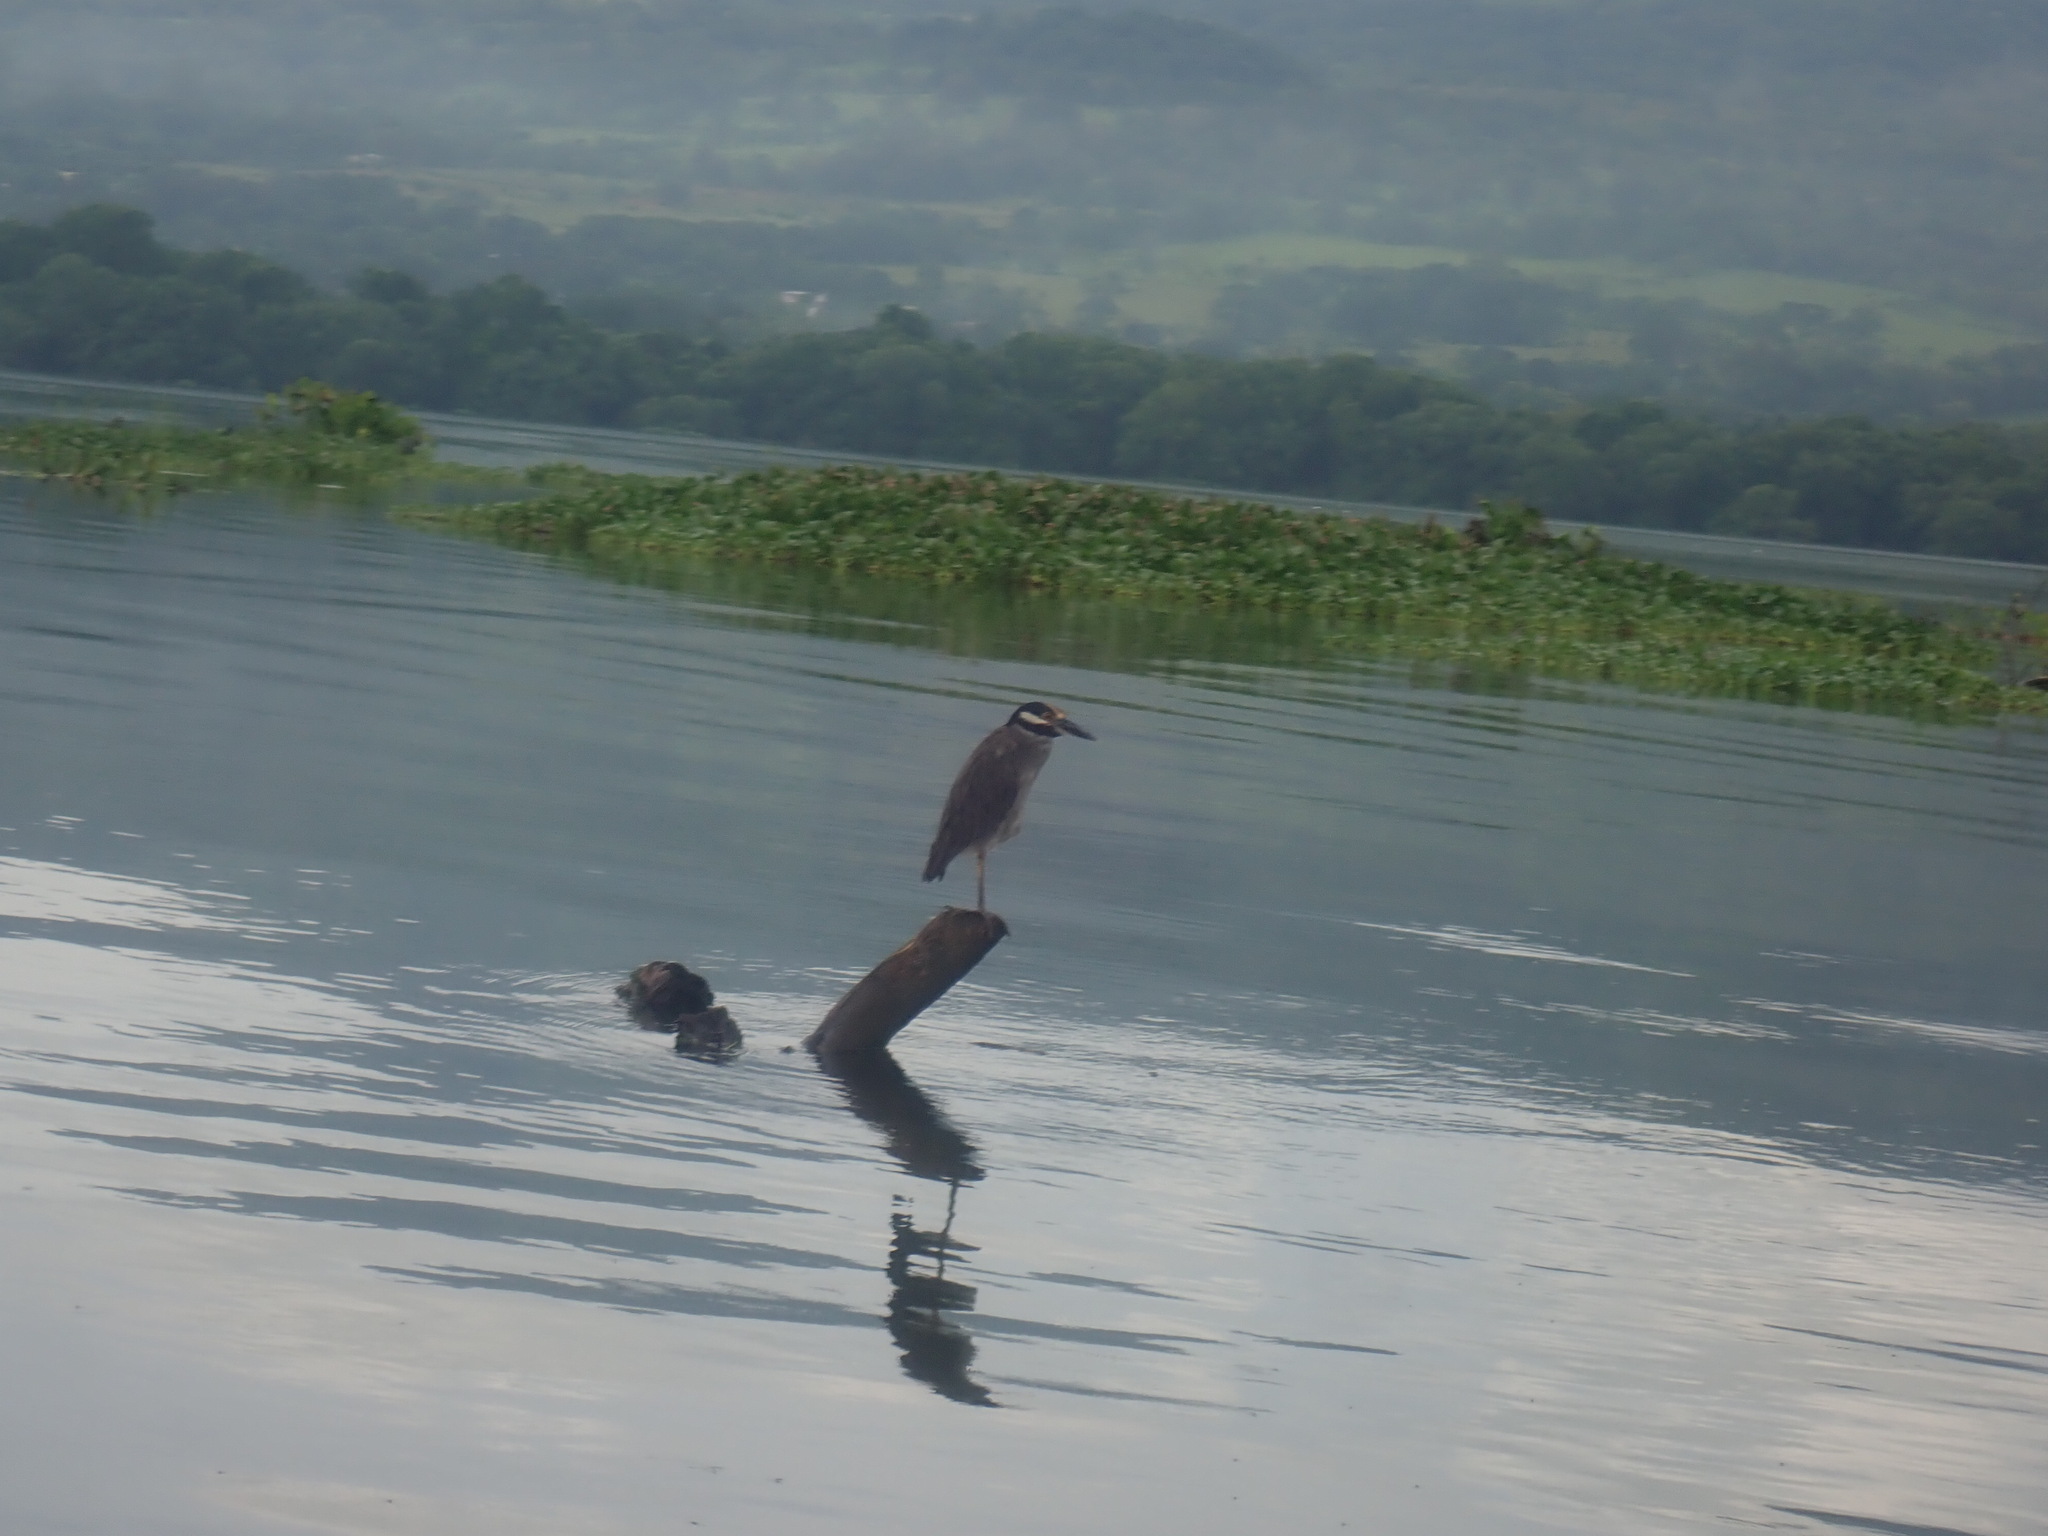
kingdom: Animalia
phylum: Chordata
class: Aves
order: Pelecaniformes
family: Ardeidae
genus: Nyctanassa
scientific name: Nyctanassa violacea
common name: Yellow-crowned night heron
